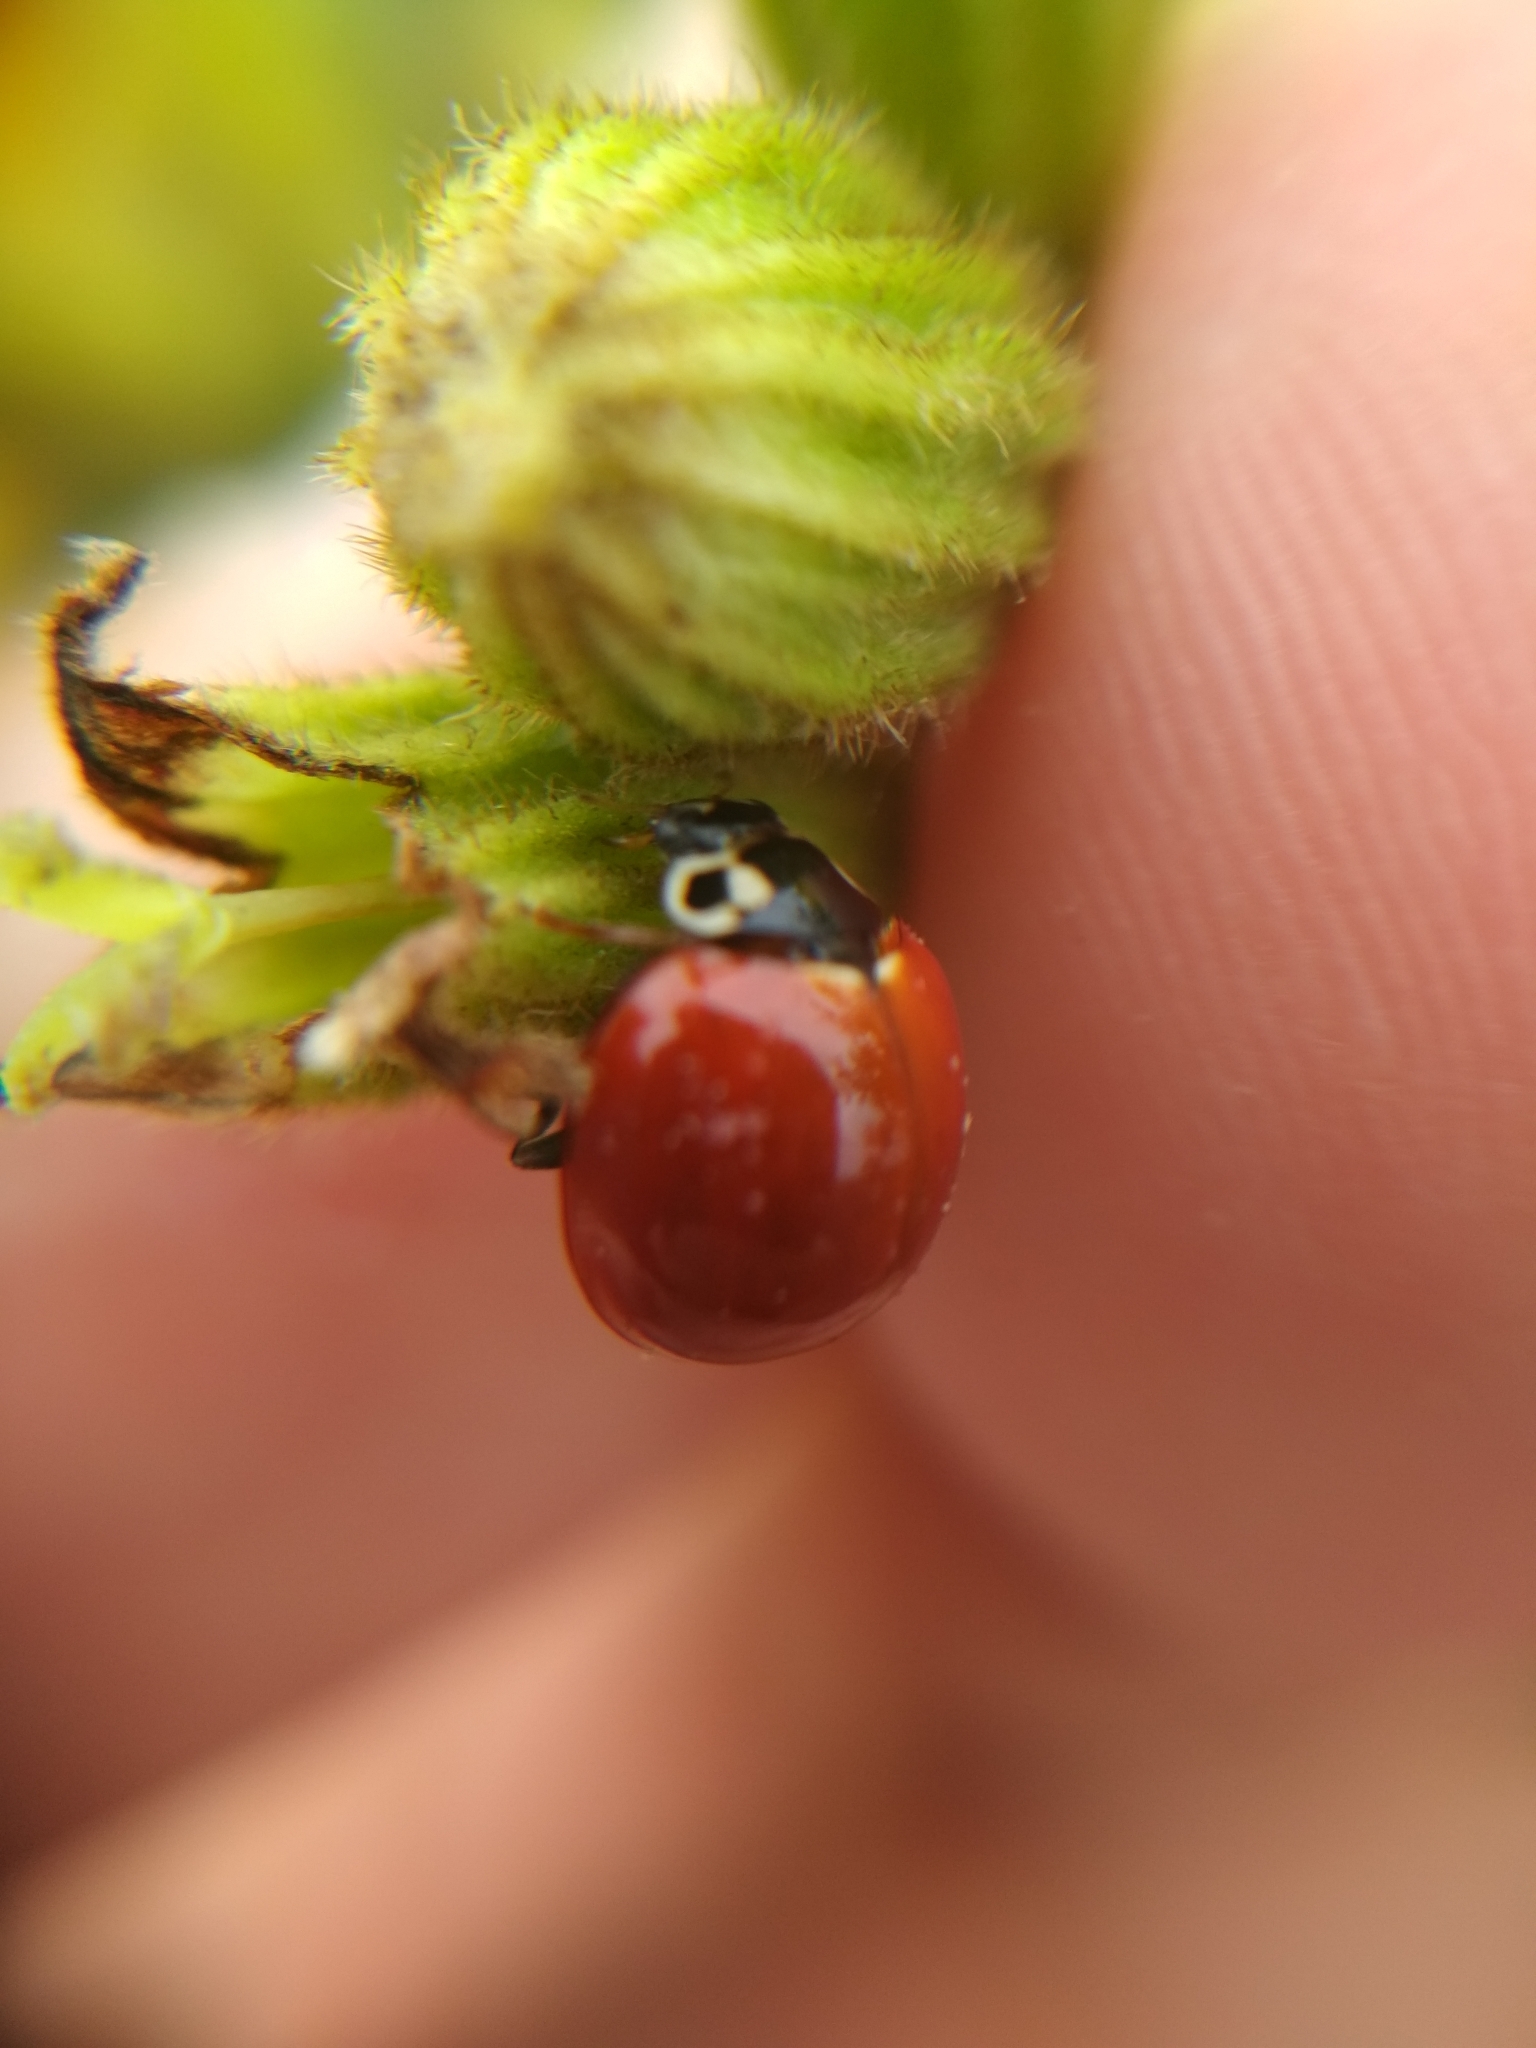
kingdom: Animalia
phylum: Arthropoda
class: Insecta
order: Coleoptera
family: Coccinellidae
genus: Cycloneda
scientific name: Cycloneda sanguinea
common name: Ladybird beetle
